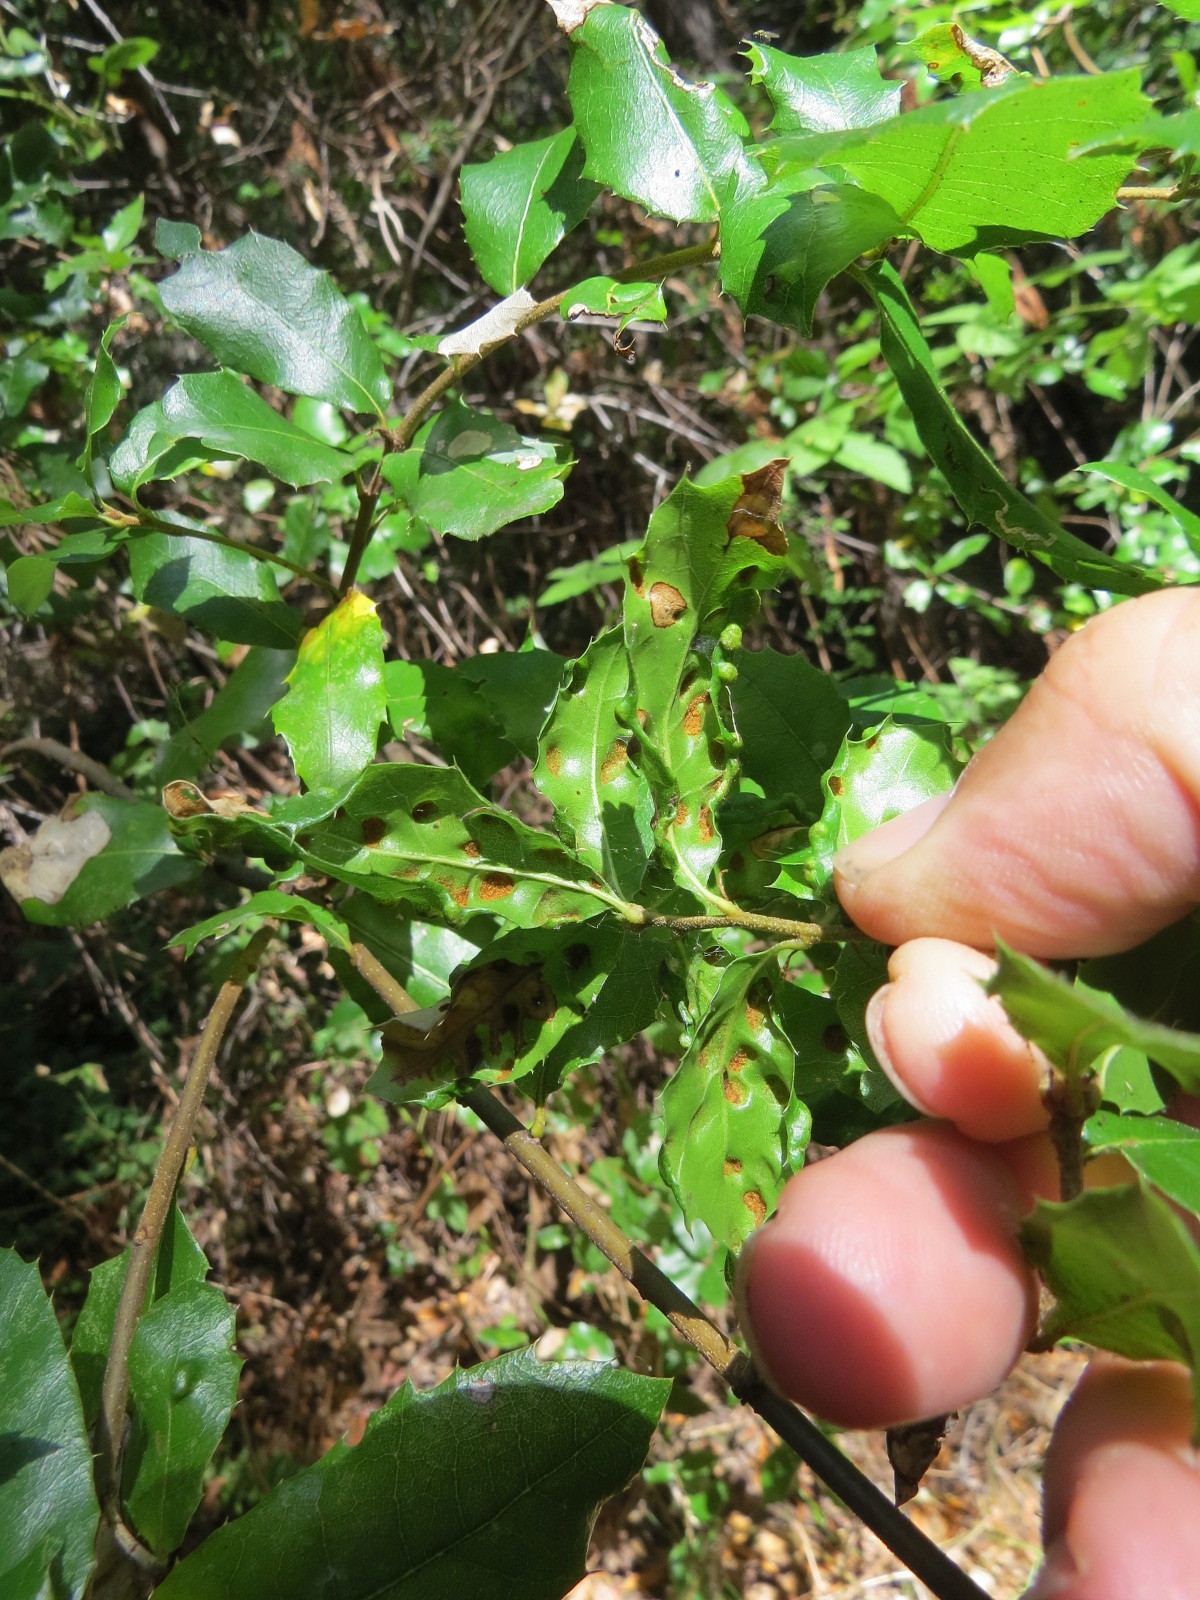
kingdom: Animalia
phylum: Arthropoda
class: Arachnida
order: Trombidiformes
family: Eriophyidae
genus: Aceria
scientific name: Aceria
